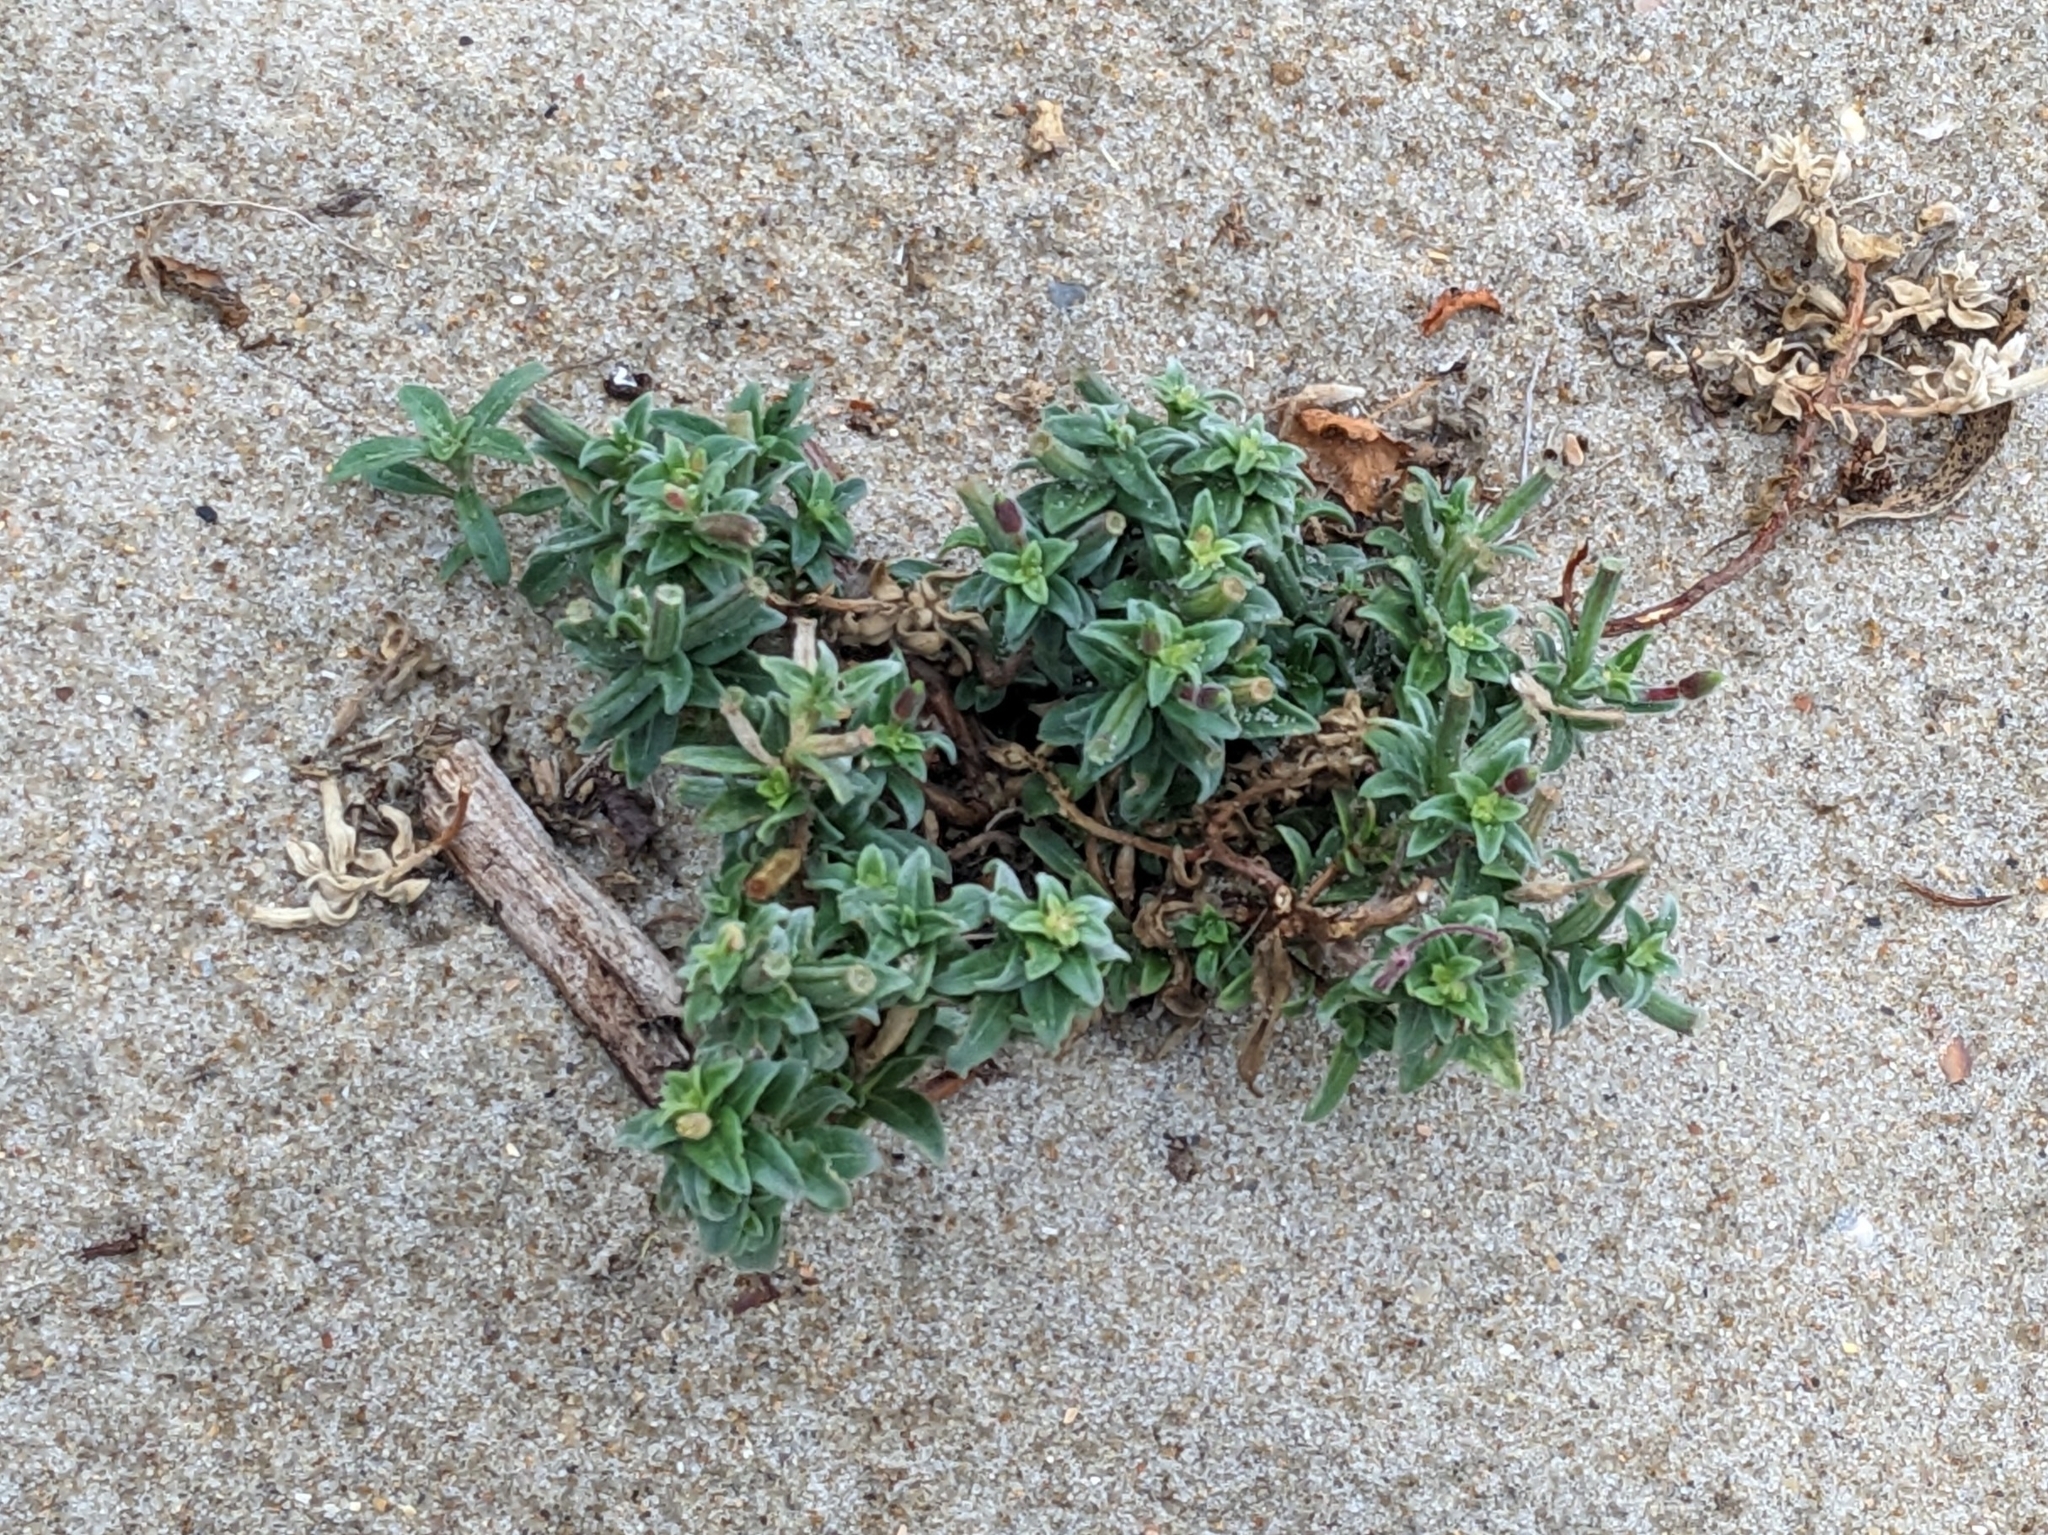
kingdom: Plantae
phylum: Tracheophyta
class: Magnoliopsida
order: Myrtales
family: Onagraceae
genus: Oenothera
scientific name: Oenothera humifusa
